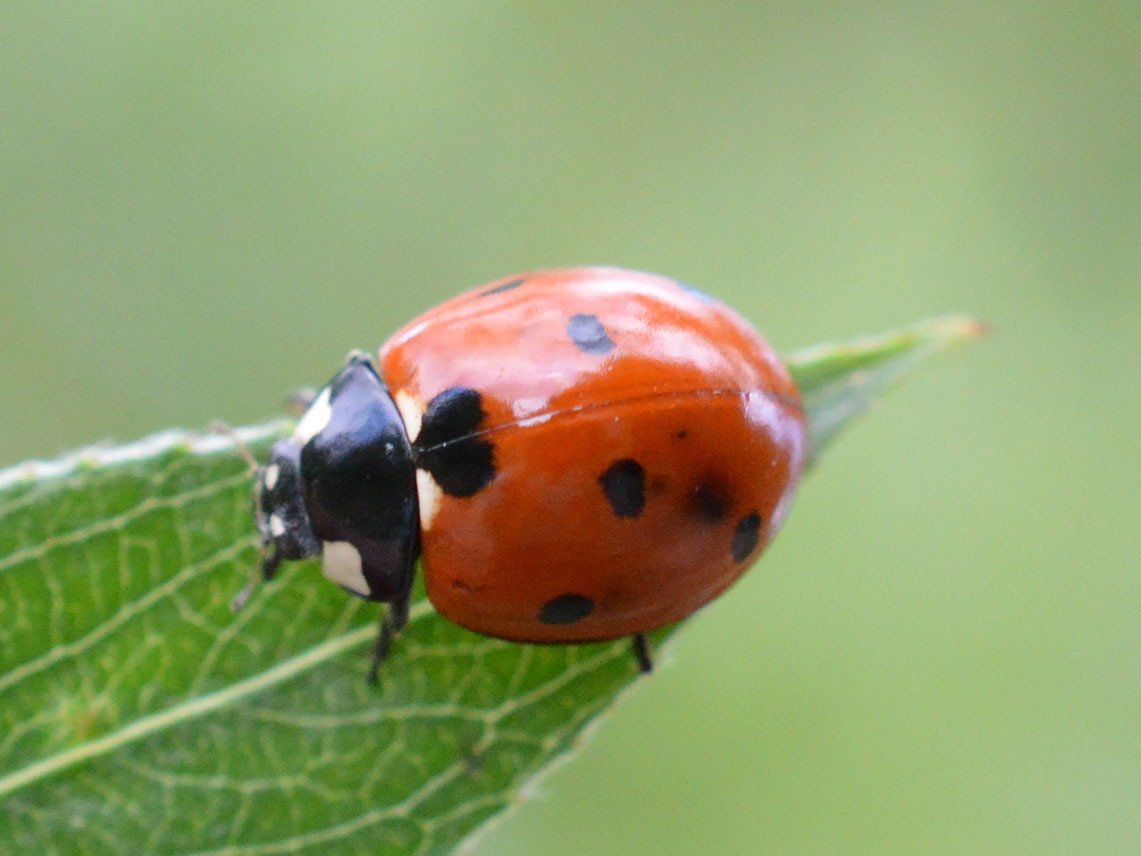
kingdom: Animalia
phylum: Arthropoda
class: Insecta
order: Coleoptera
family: Coccinellidae
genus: Coccinella
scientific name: Coccinella septempunctata
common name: Sevenspotted lady beetle
